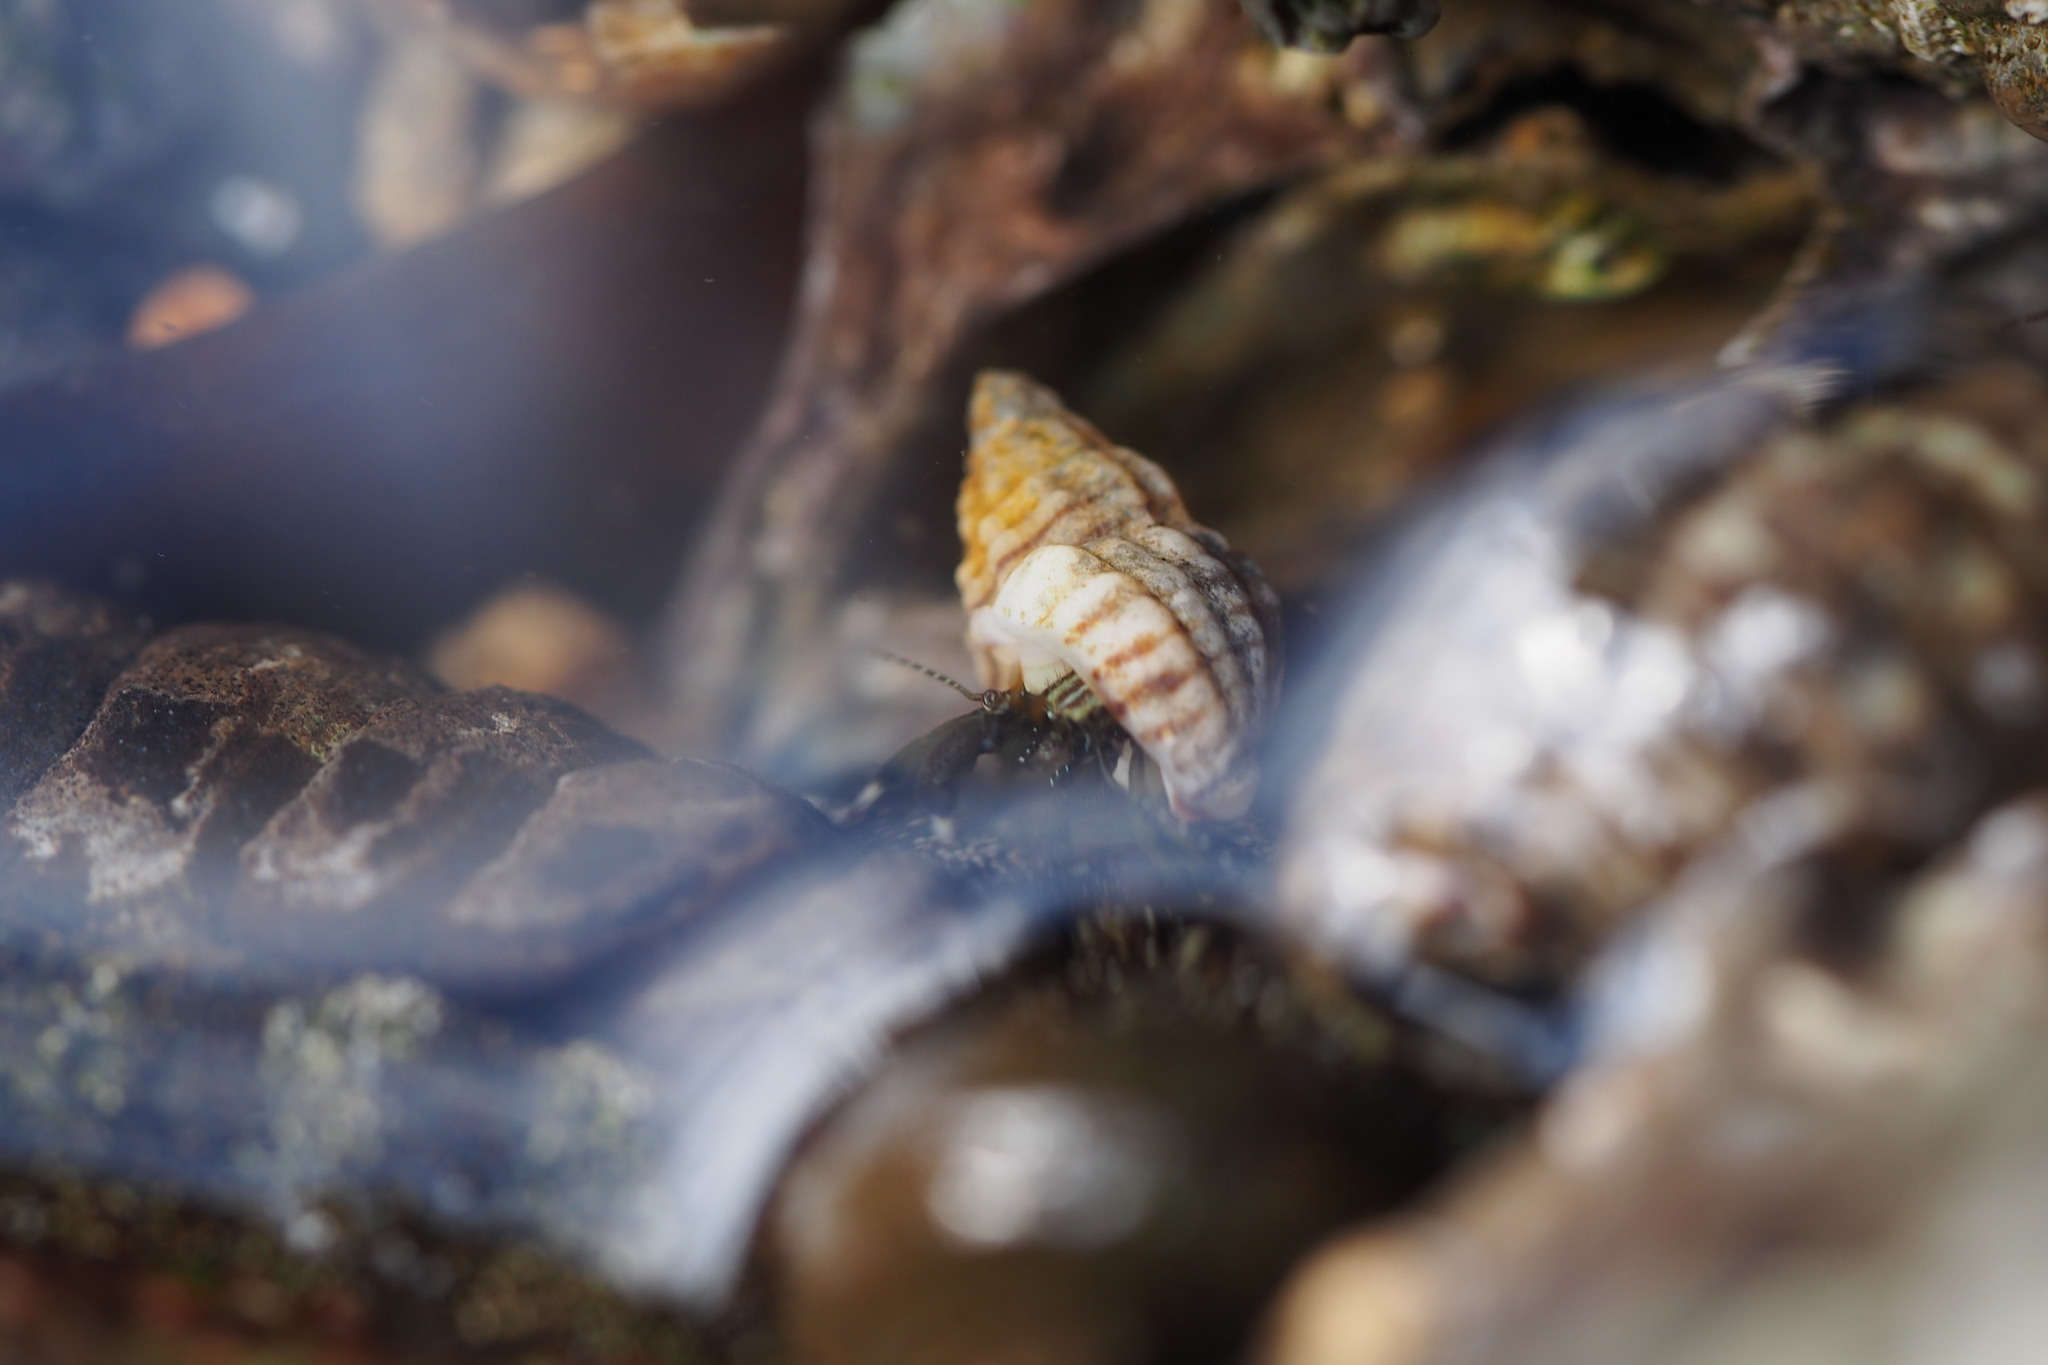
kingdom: Animalia
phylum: Arthropoda
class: Malacostraca
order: Decapoda
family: Paguridae
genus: Pagurus
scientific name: Pagurus filholi
